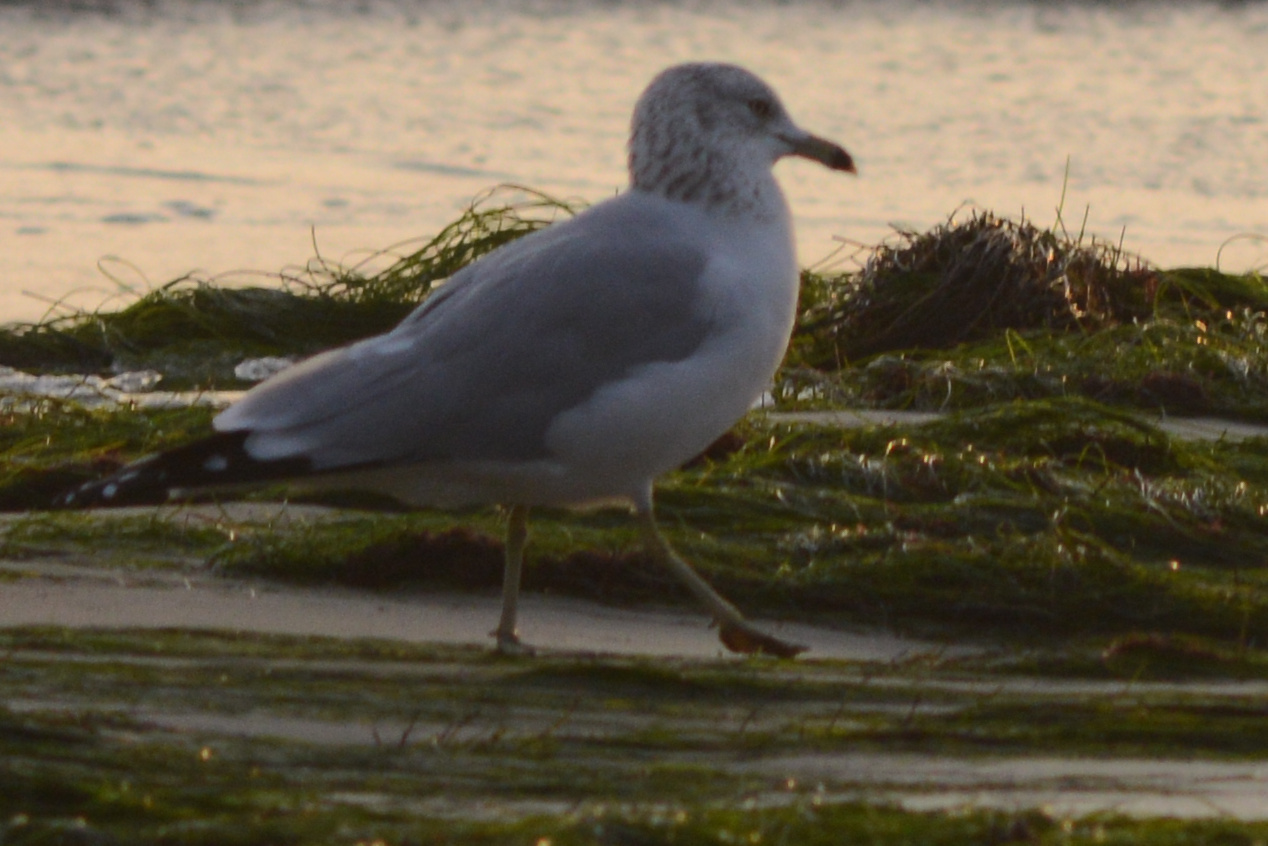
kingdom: Animalia
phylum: Chordata
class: Aves
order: Charadriiformes
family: Laridae
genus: Larus
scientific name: Larus delawarensis
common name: Ring-billed gull
